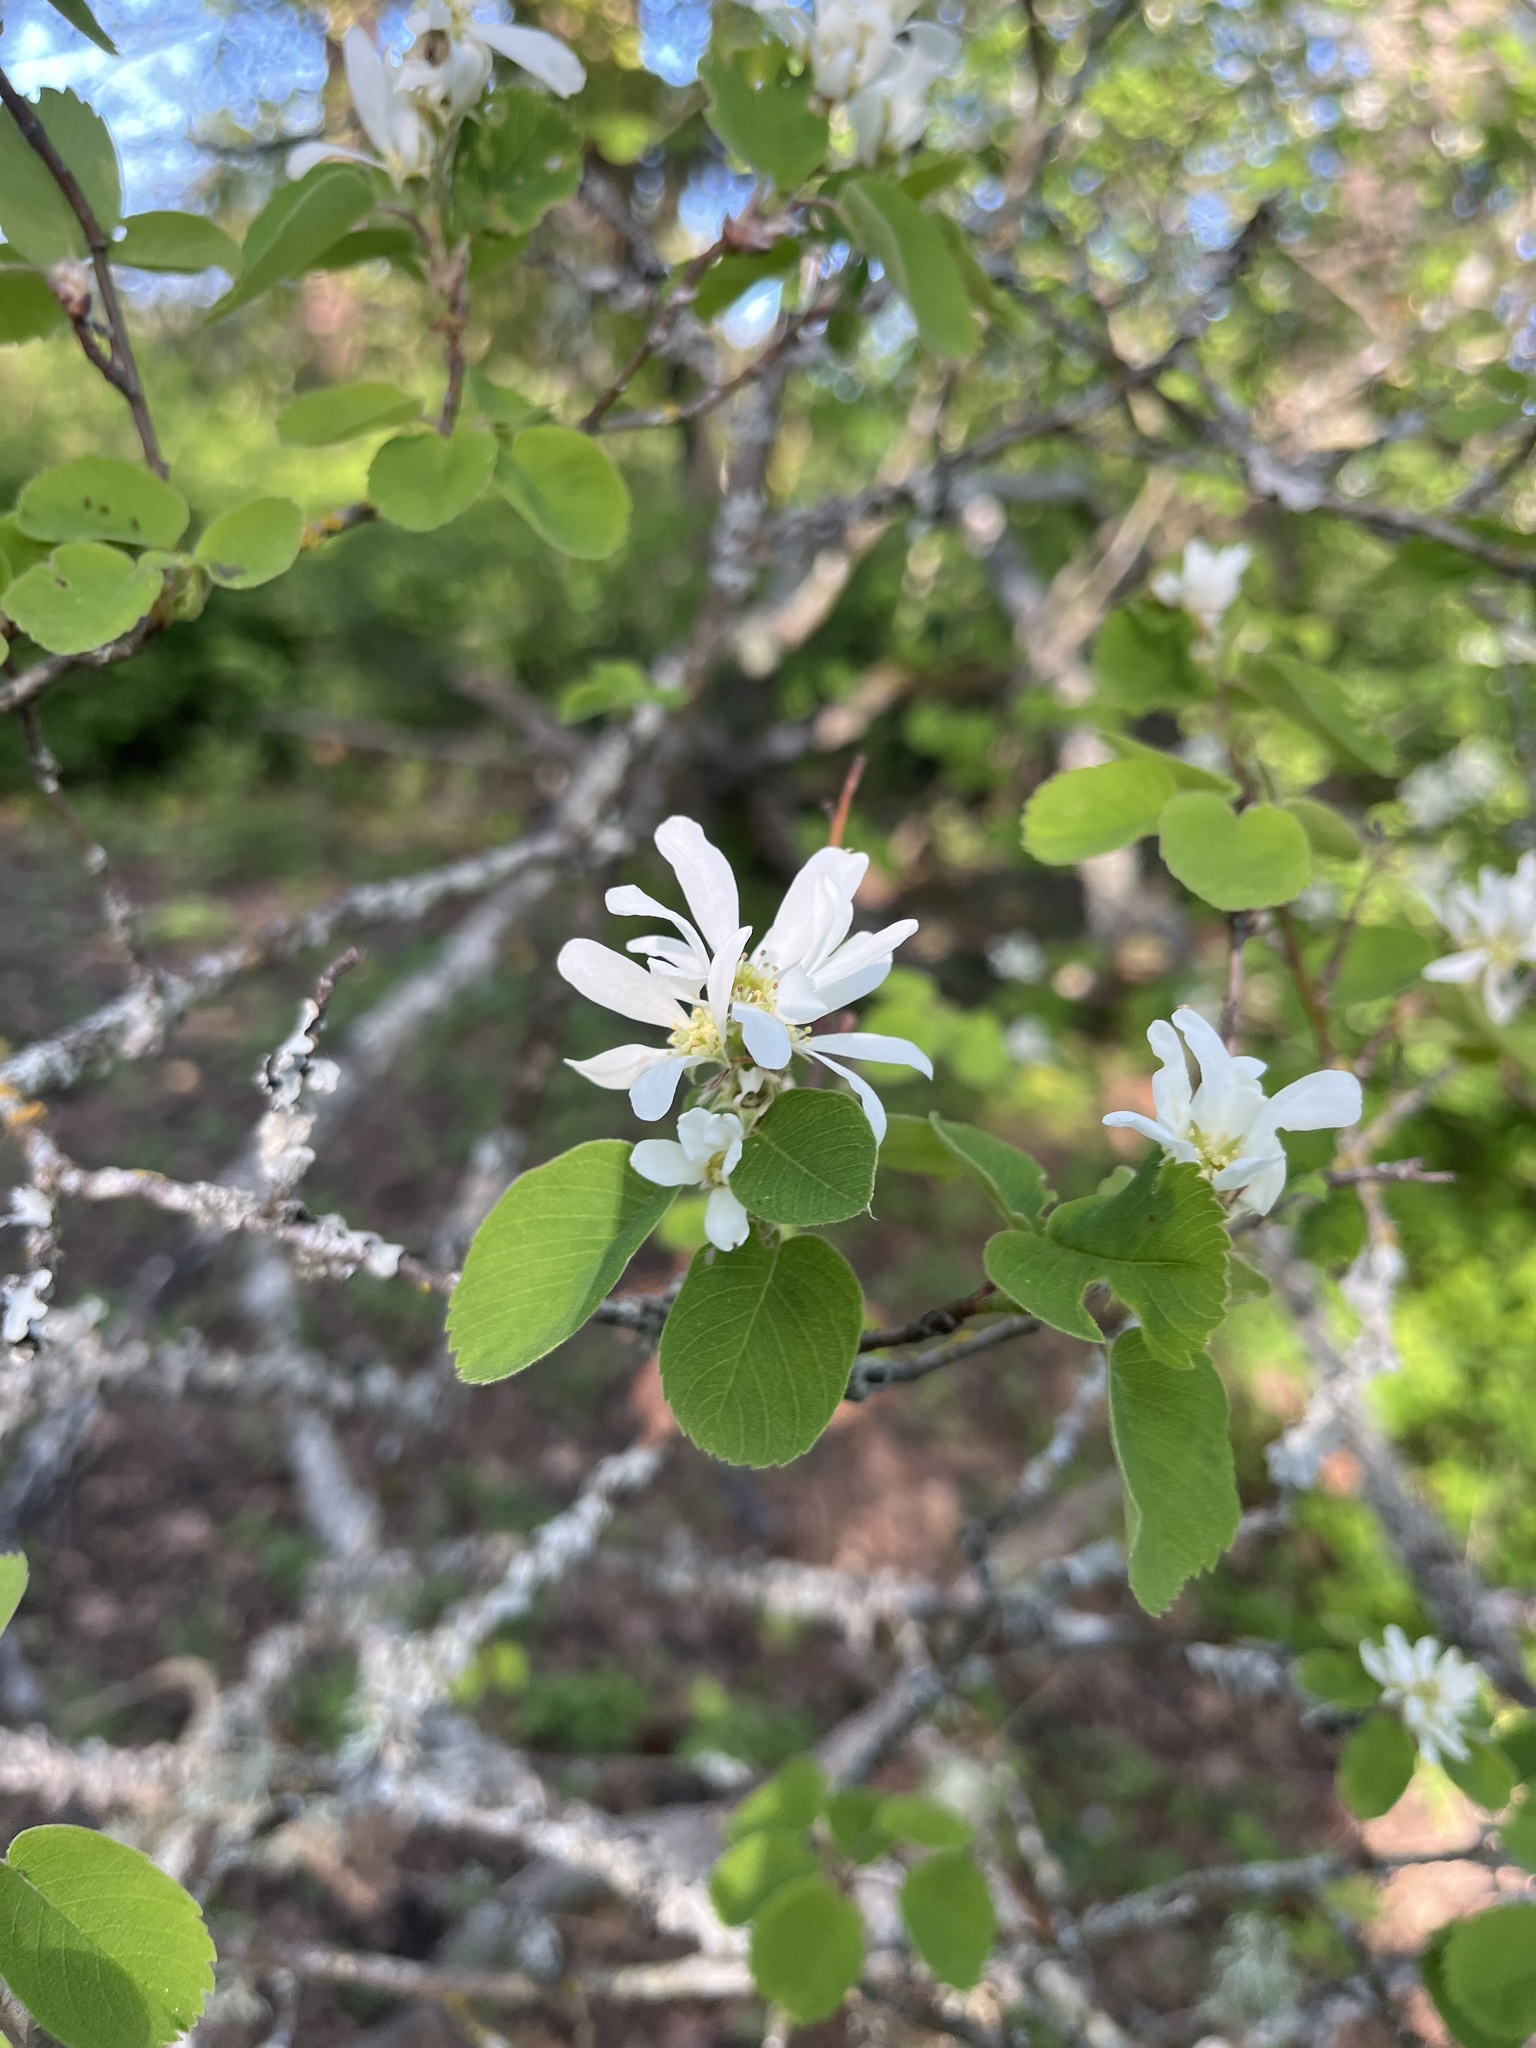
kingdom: Plantae
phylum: Tracheophyta
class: Magnoliopsida
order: Rosales
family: Rosaceae
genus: Amelanchier
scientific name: Amelanchier alnifolia
